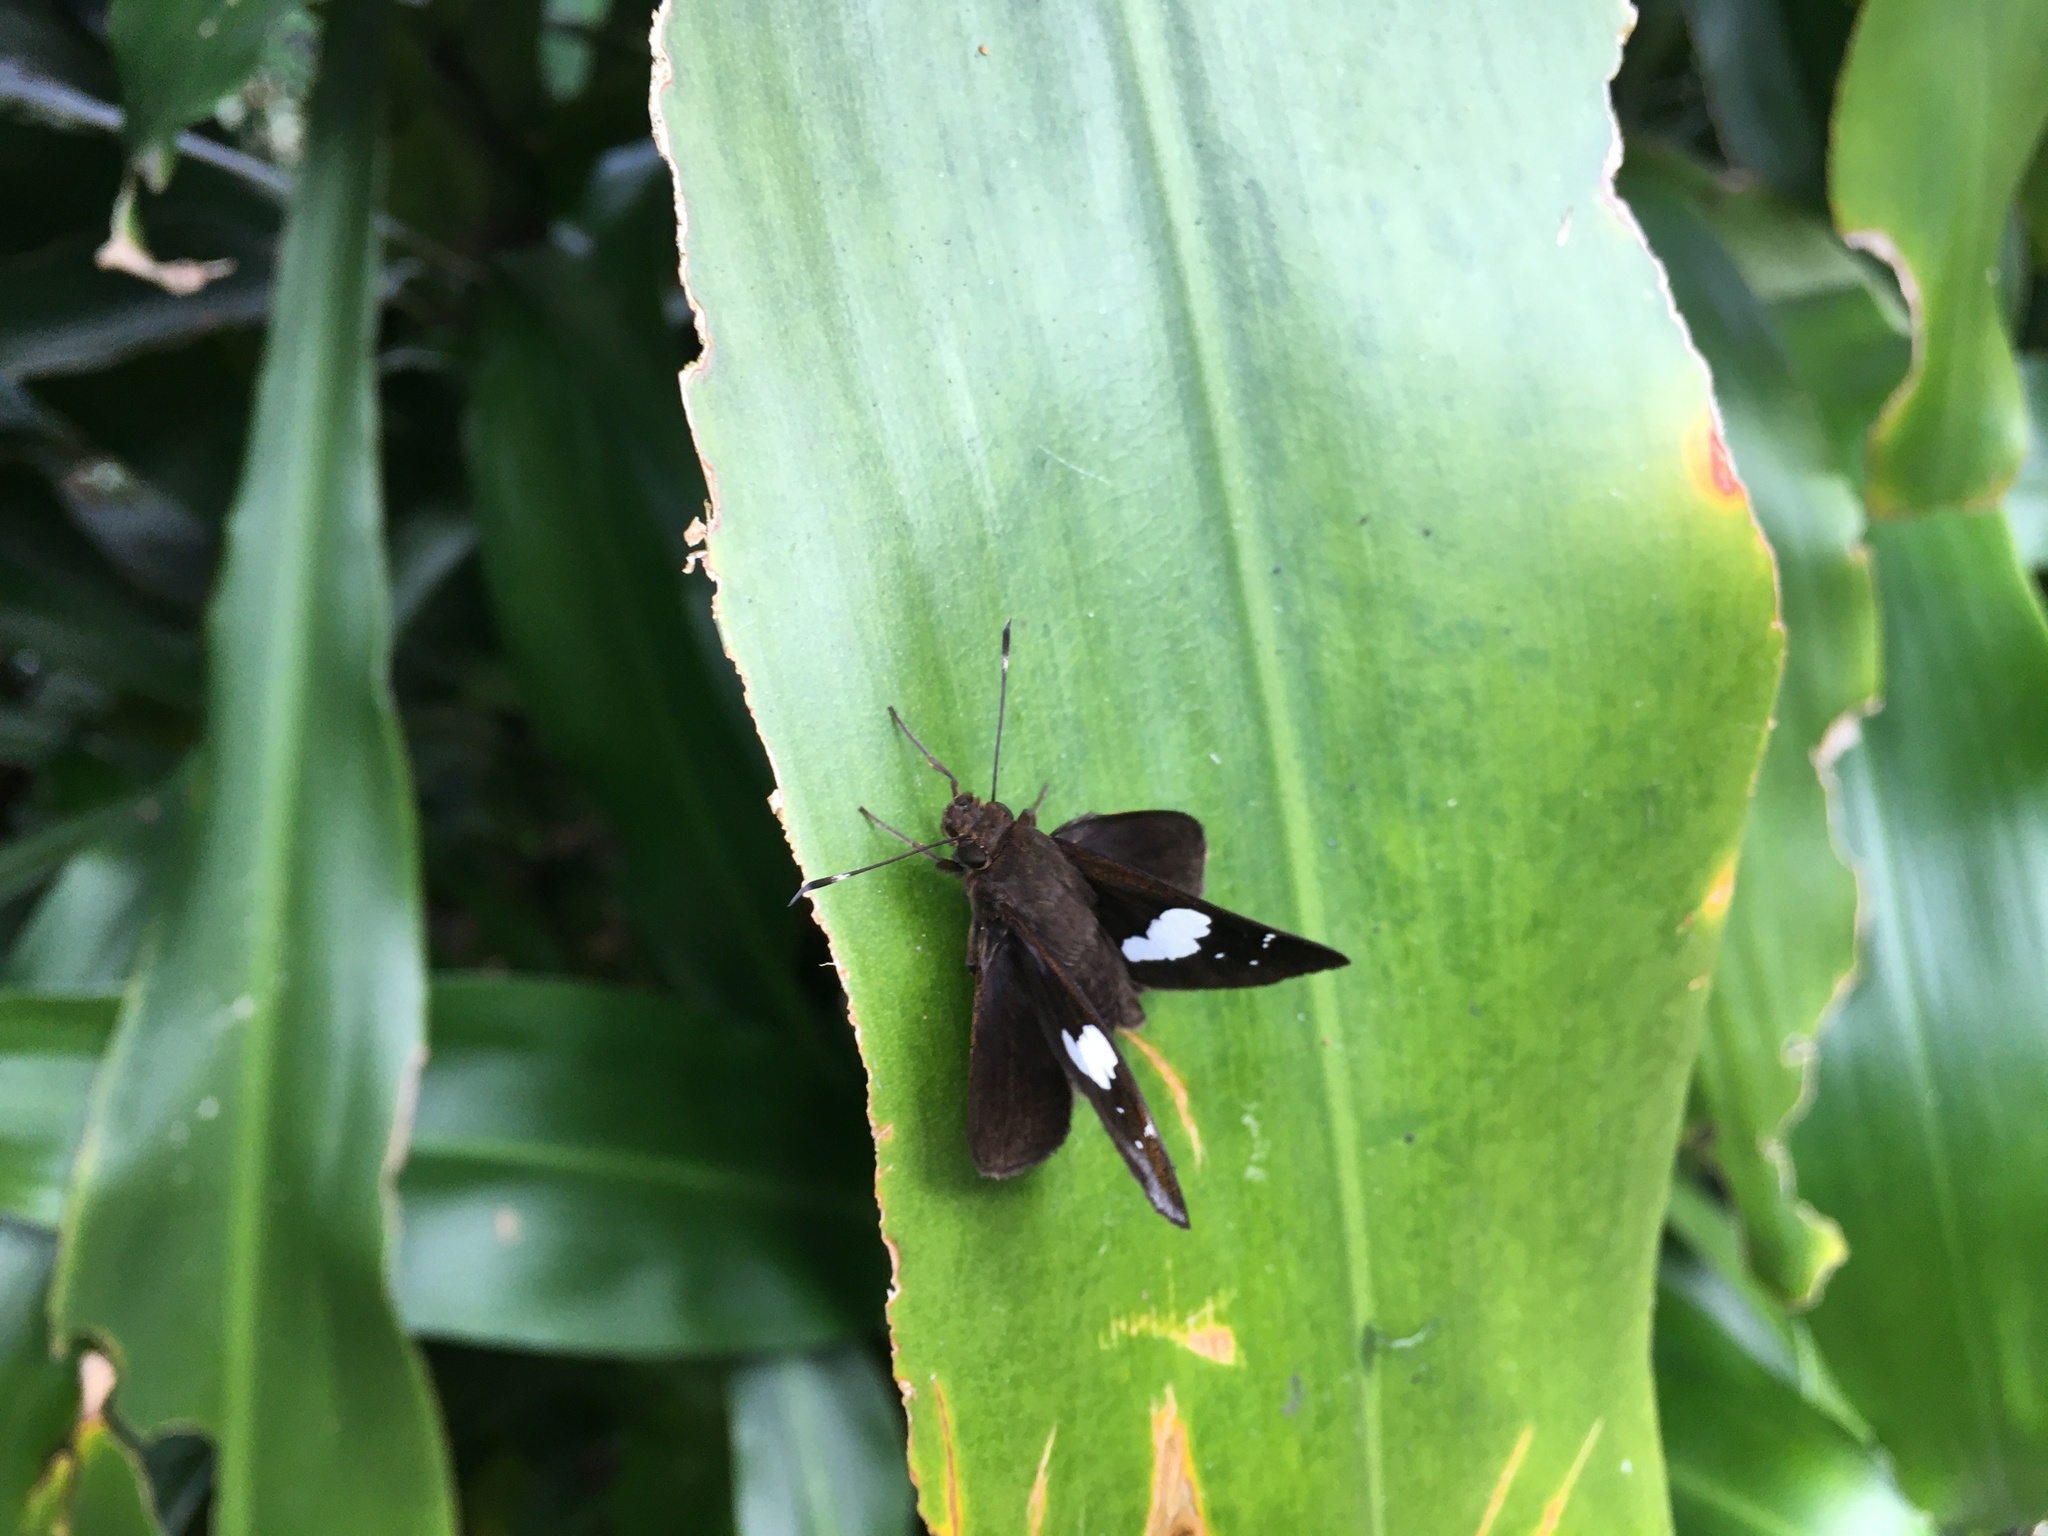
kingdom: Animalia
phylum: Arthropoda
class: Insecta
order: Lepidoptera
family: Hesperiidae
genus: Notocrypta
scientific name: Notocrypta curvifascia
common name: Restricted demon
